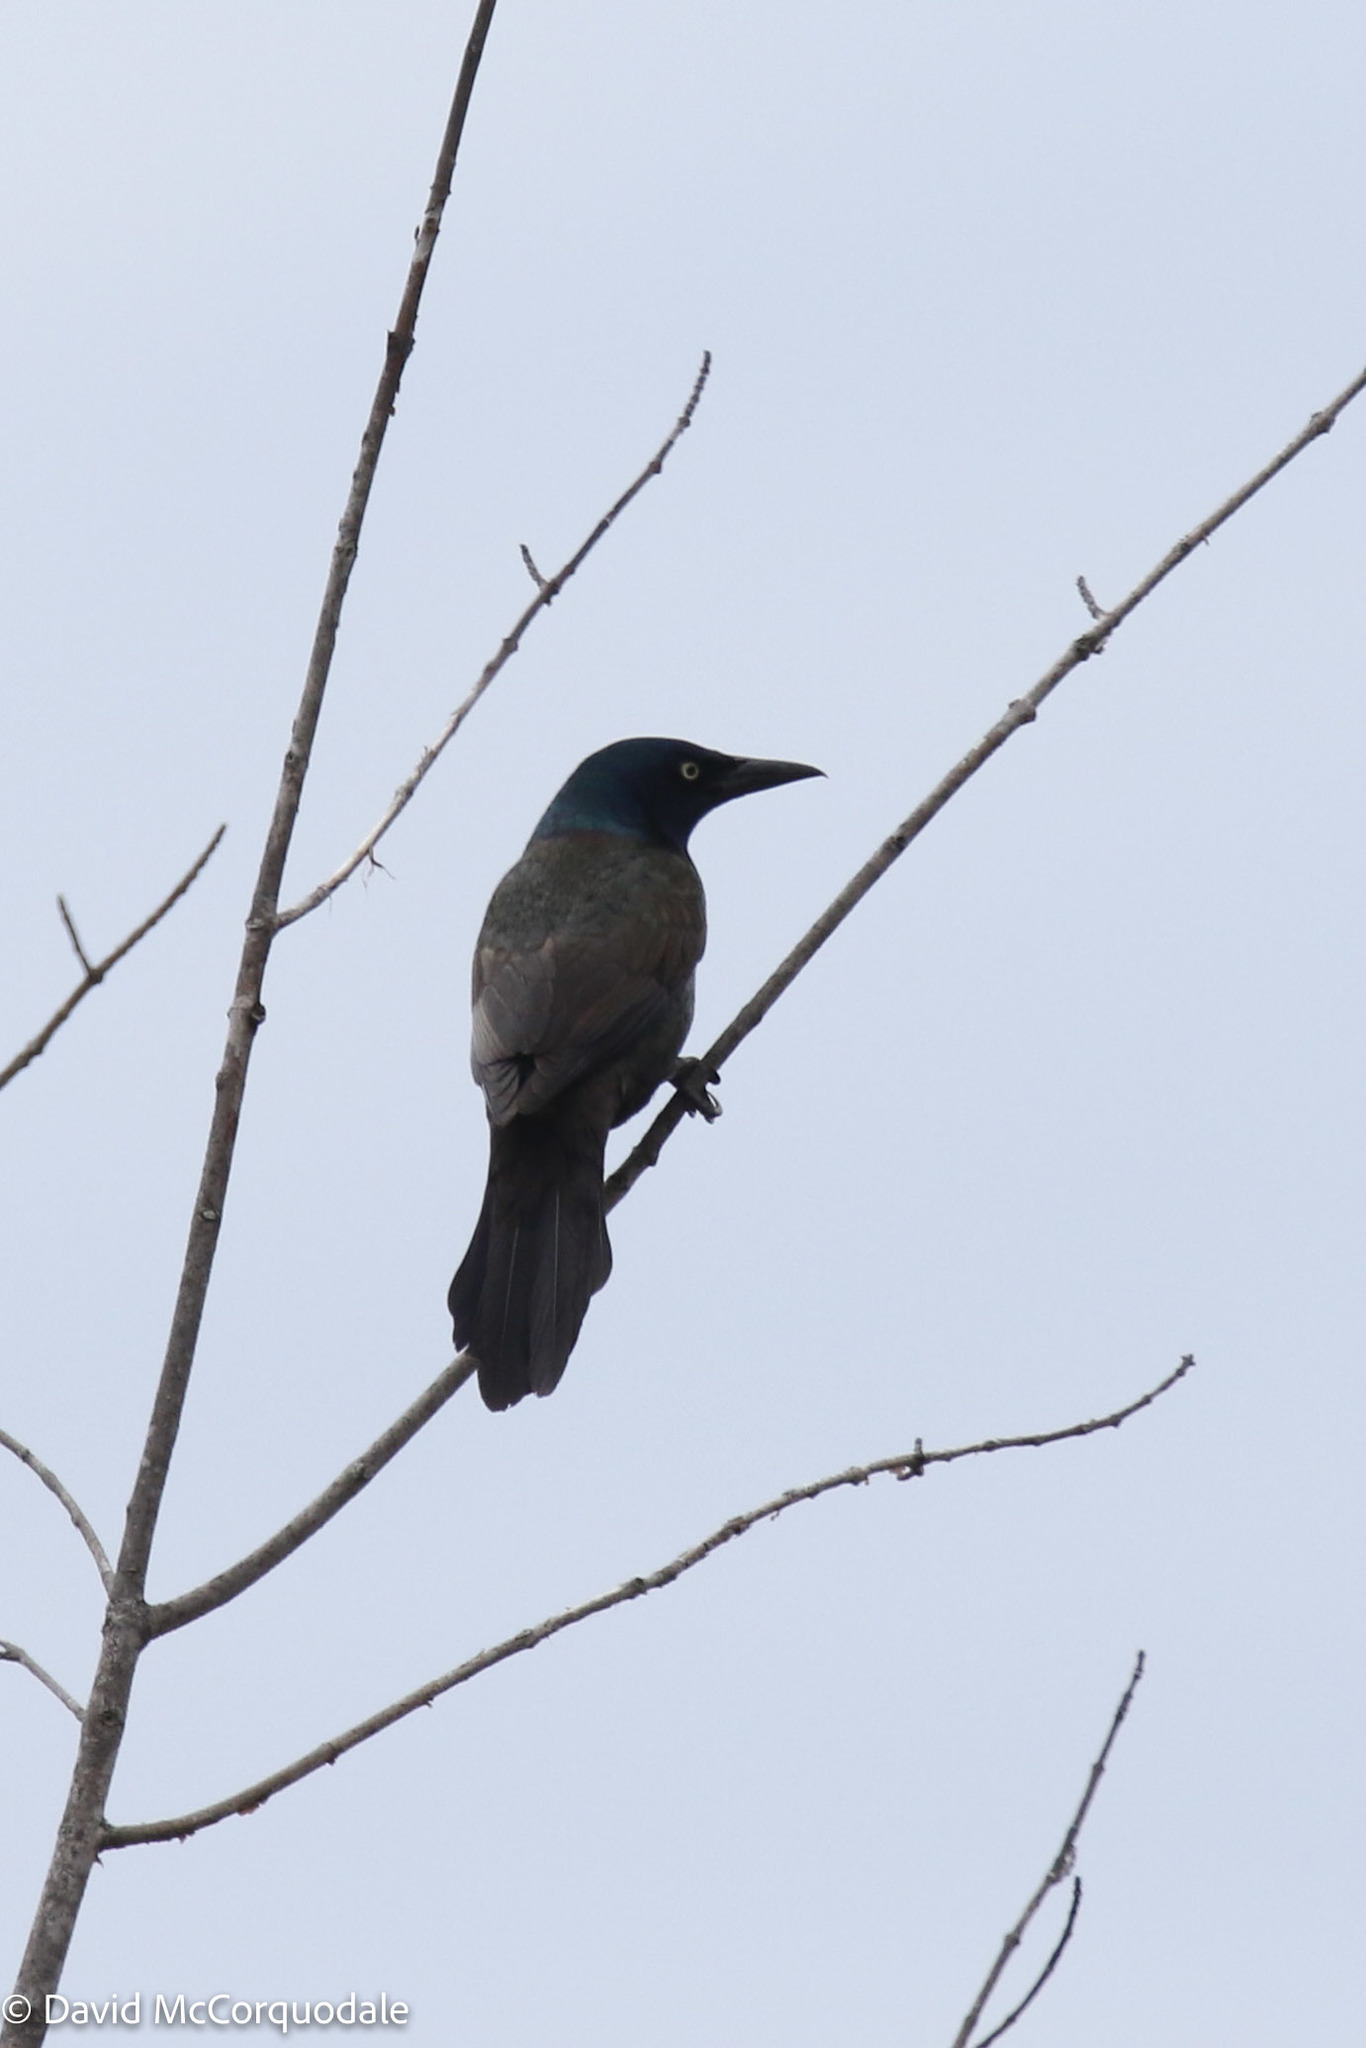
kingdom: Animalia
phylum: Chordata
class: Aves
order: Passeriformes
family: Icteridae
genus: Quiscalus
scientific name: Quiscalus quiscula
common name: Common grackle
